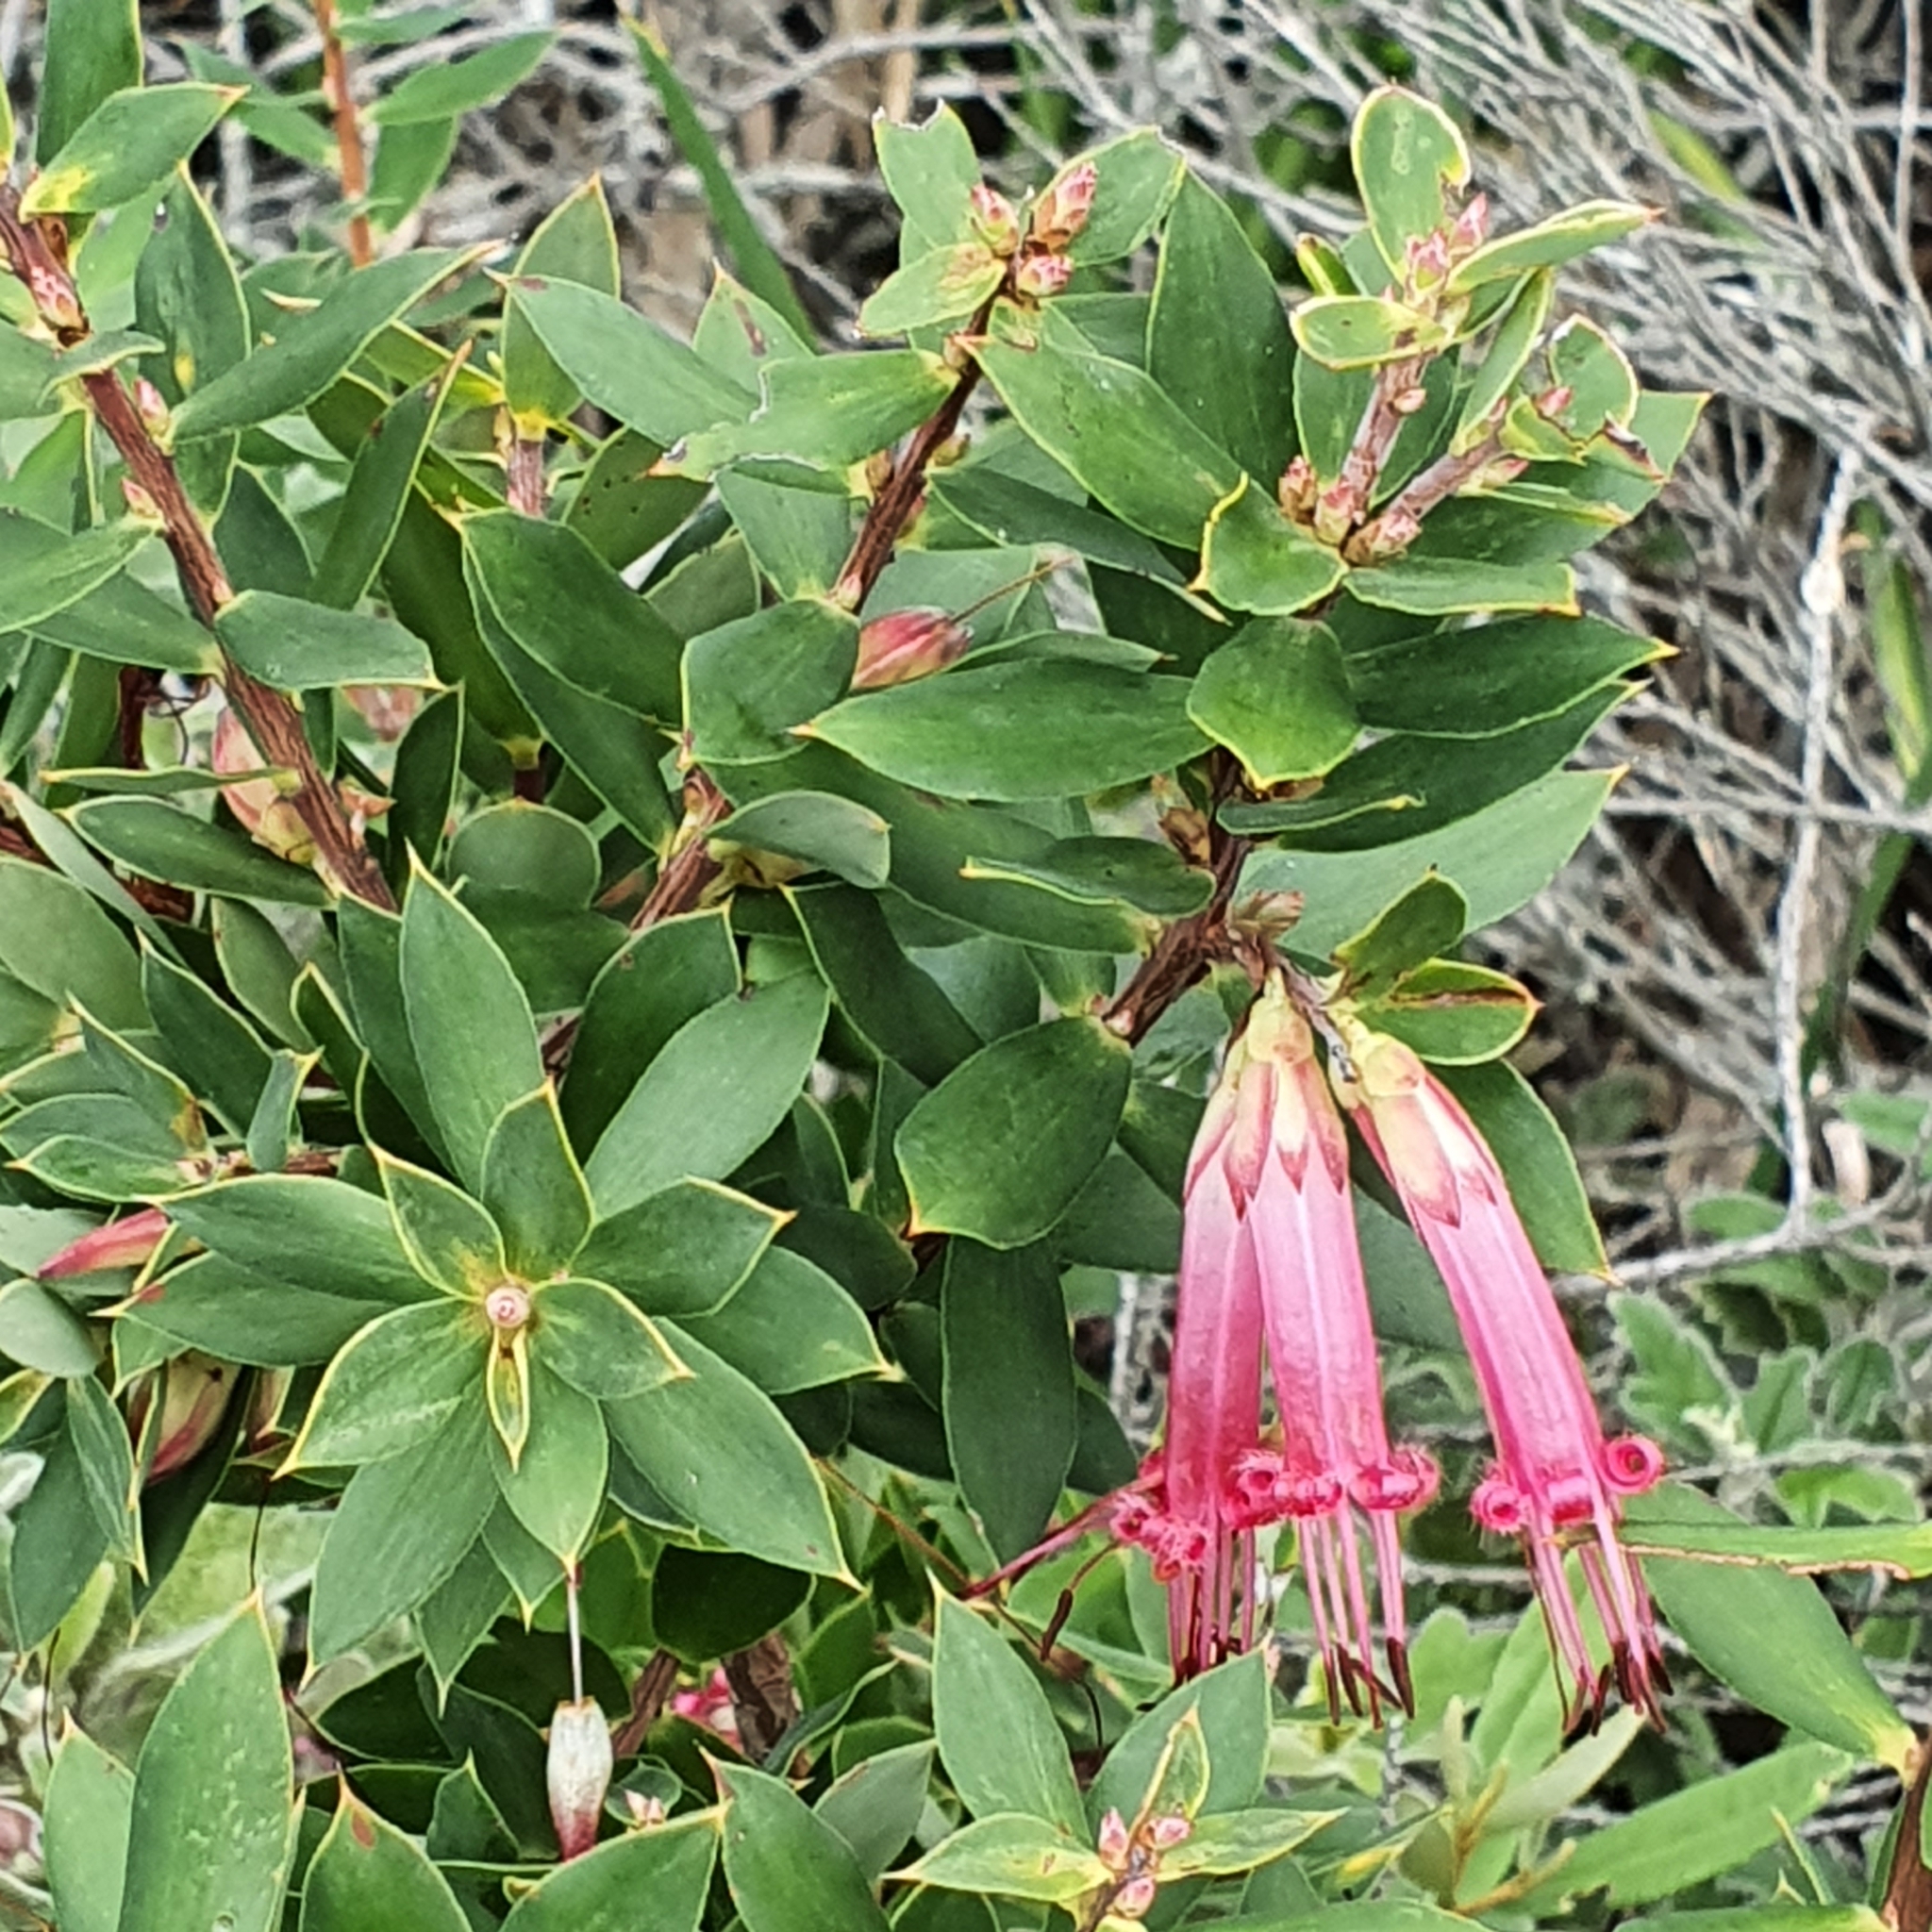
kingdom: Plantae
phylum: Tracheophyta
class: Magnoliopsida
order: Ericales
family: Ericaceae
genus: Styphelia
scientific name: Styphelia triflora
